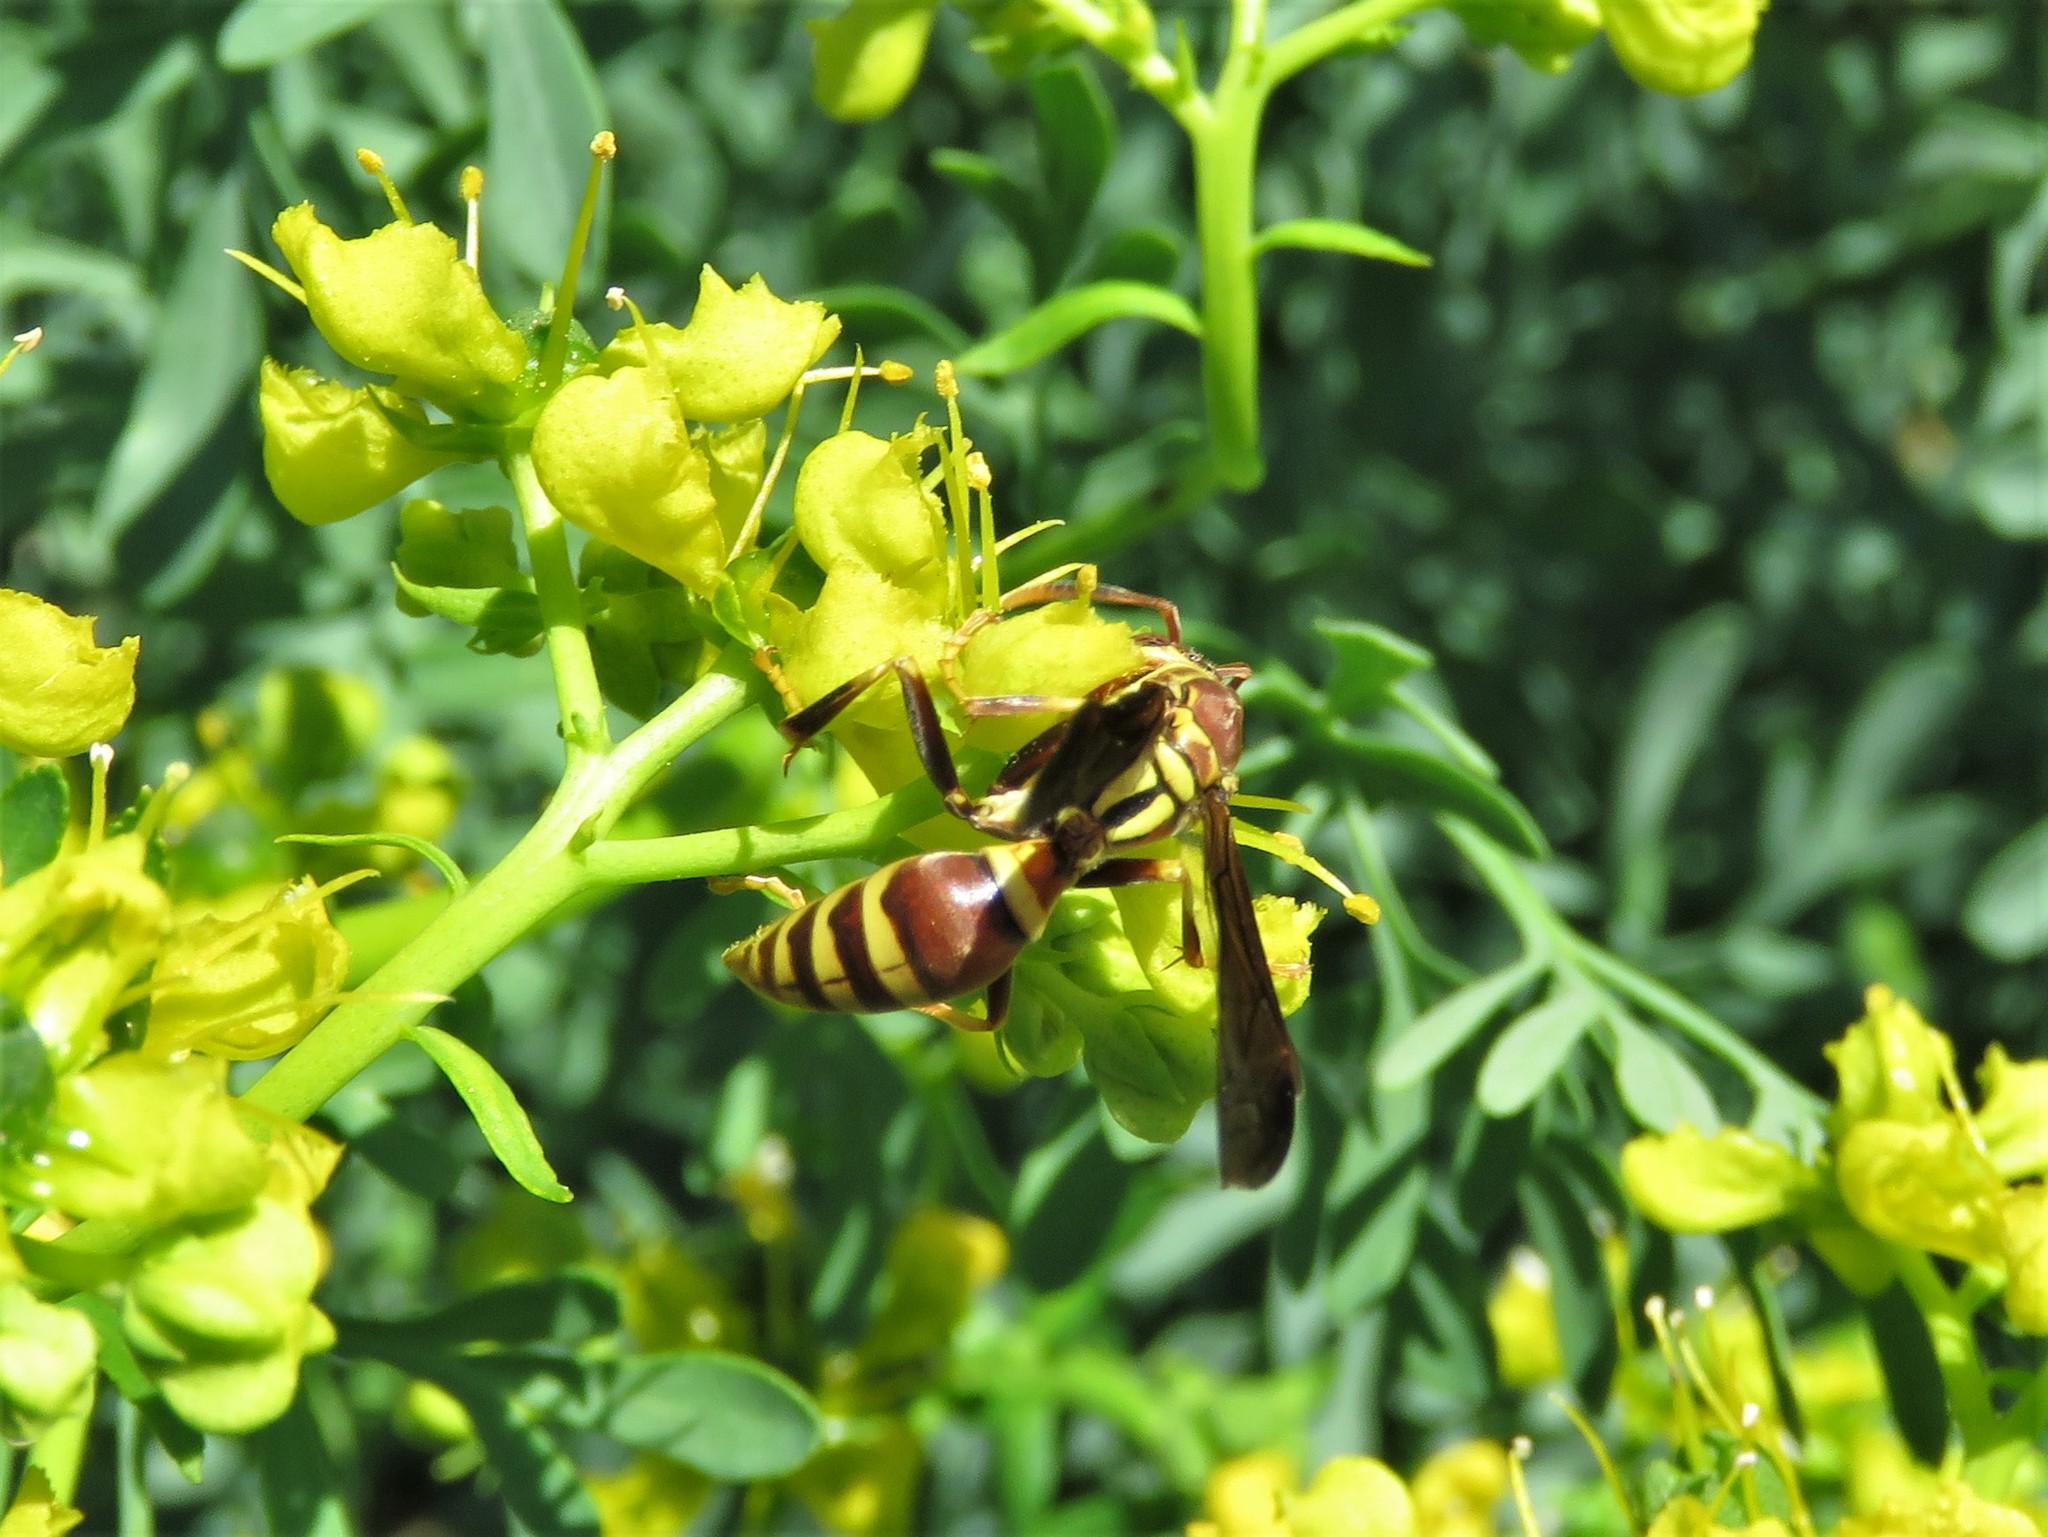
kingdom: Animalia
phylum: Arthropoda
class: Insecta
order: Hymenoptera
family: Eumenidae
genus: Polistes
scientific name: Polistes exclamans
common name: Paper wasp
